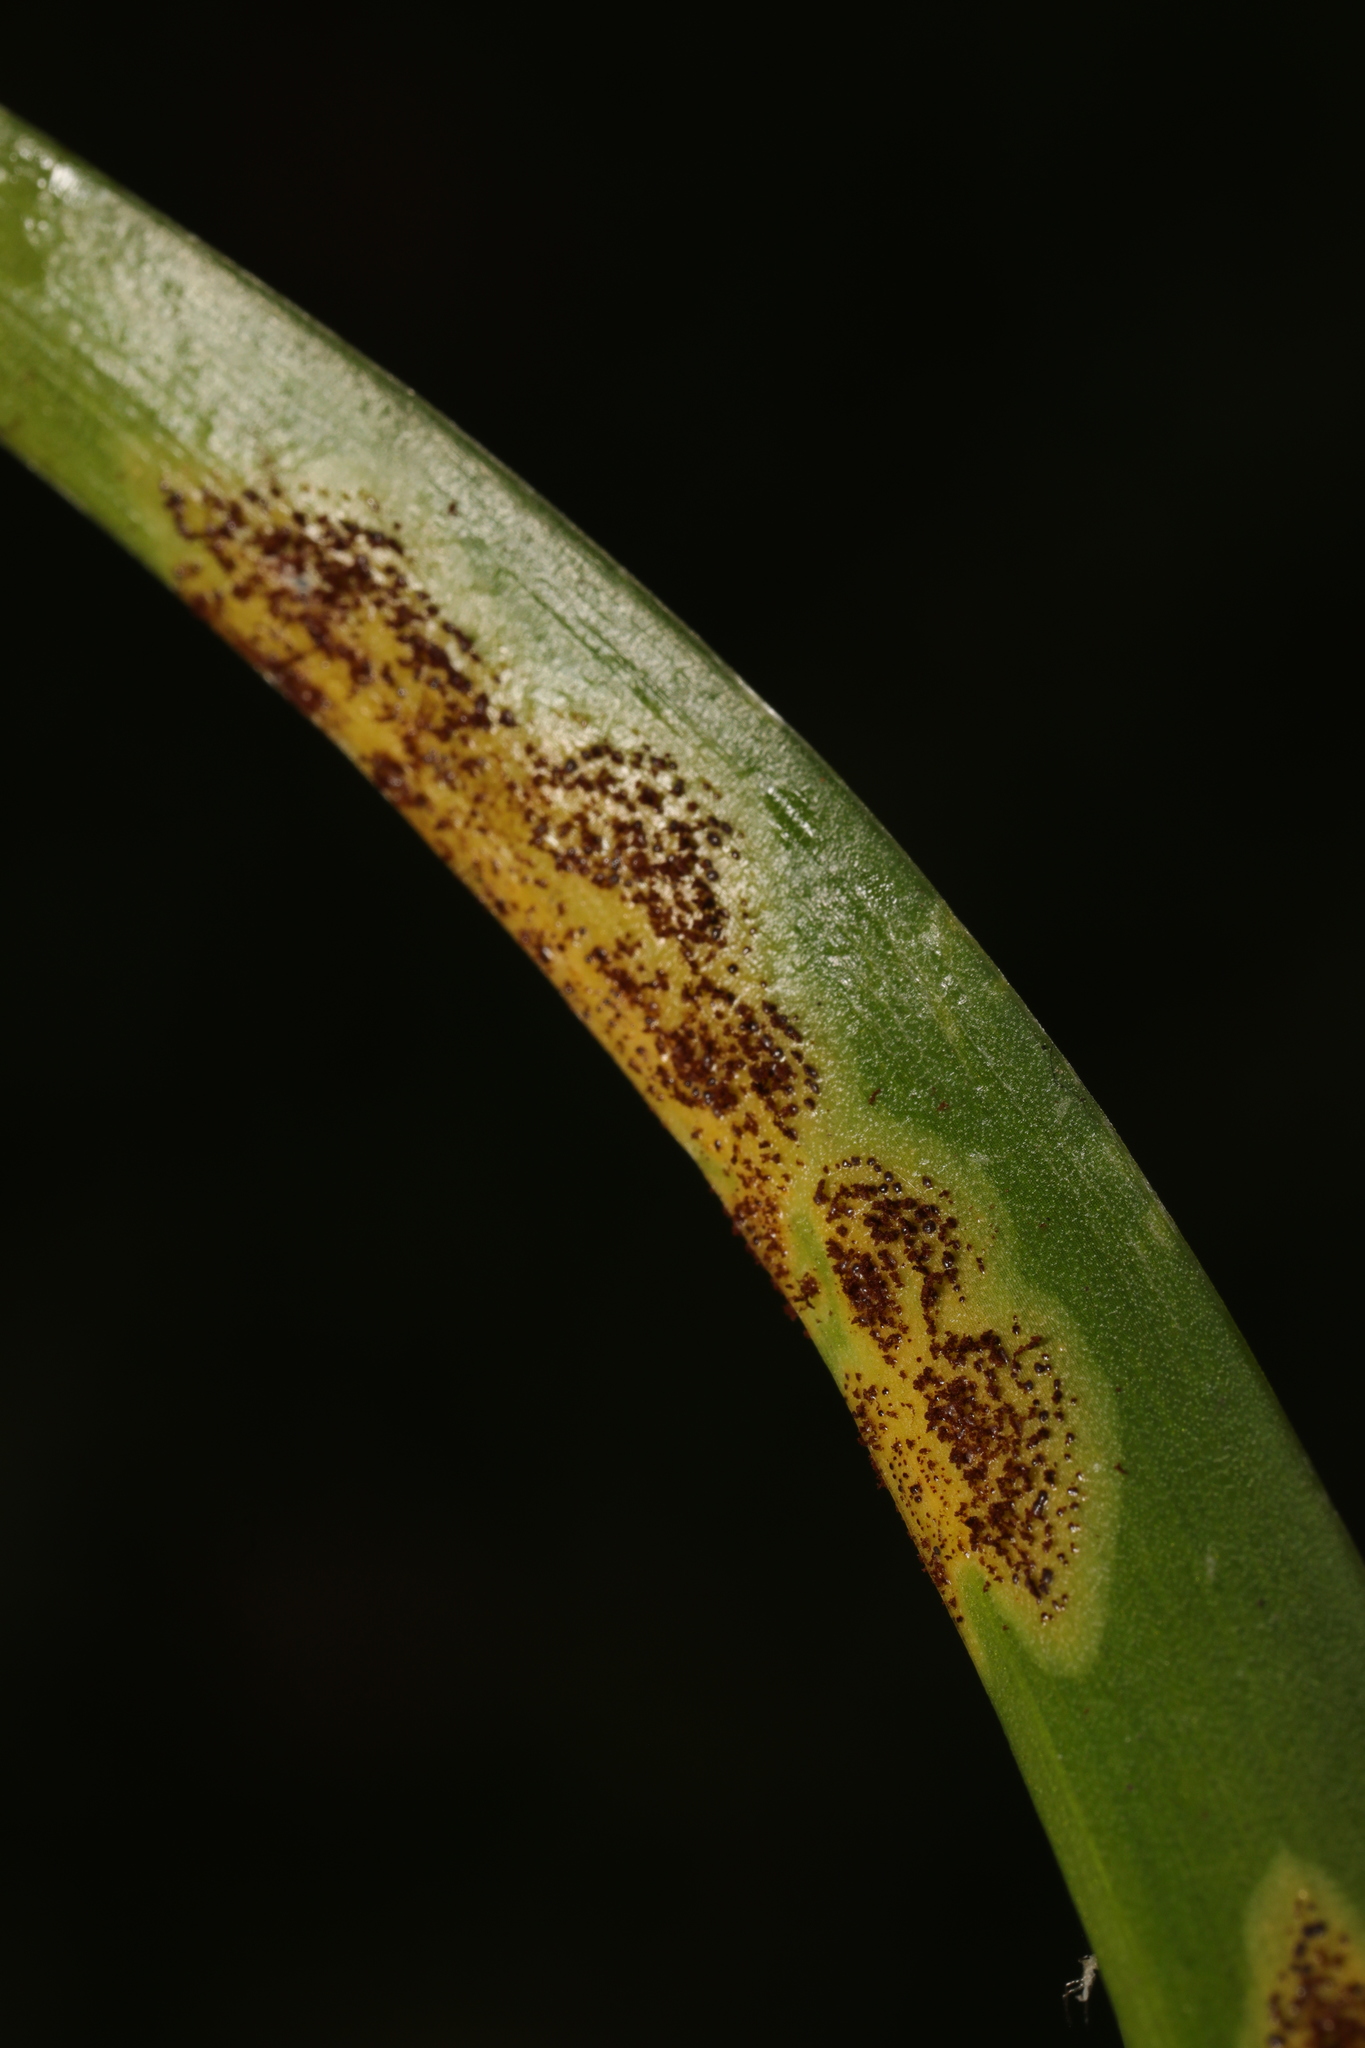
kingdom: Fungi
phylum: Basidiomycota
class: Pucciniomycetes
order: Pucciniales
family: Pucciniaceae
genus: Uromyces
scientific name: Uromyces hyacinthi
